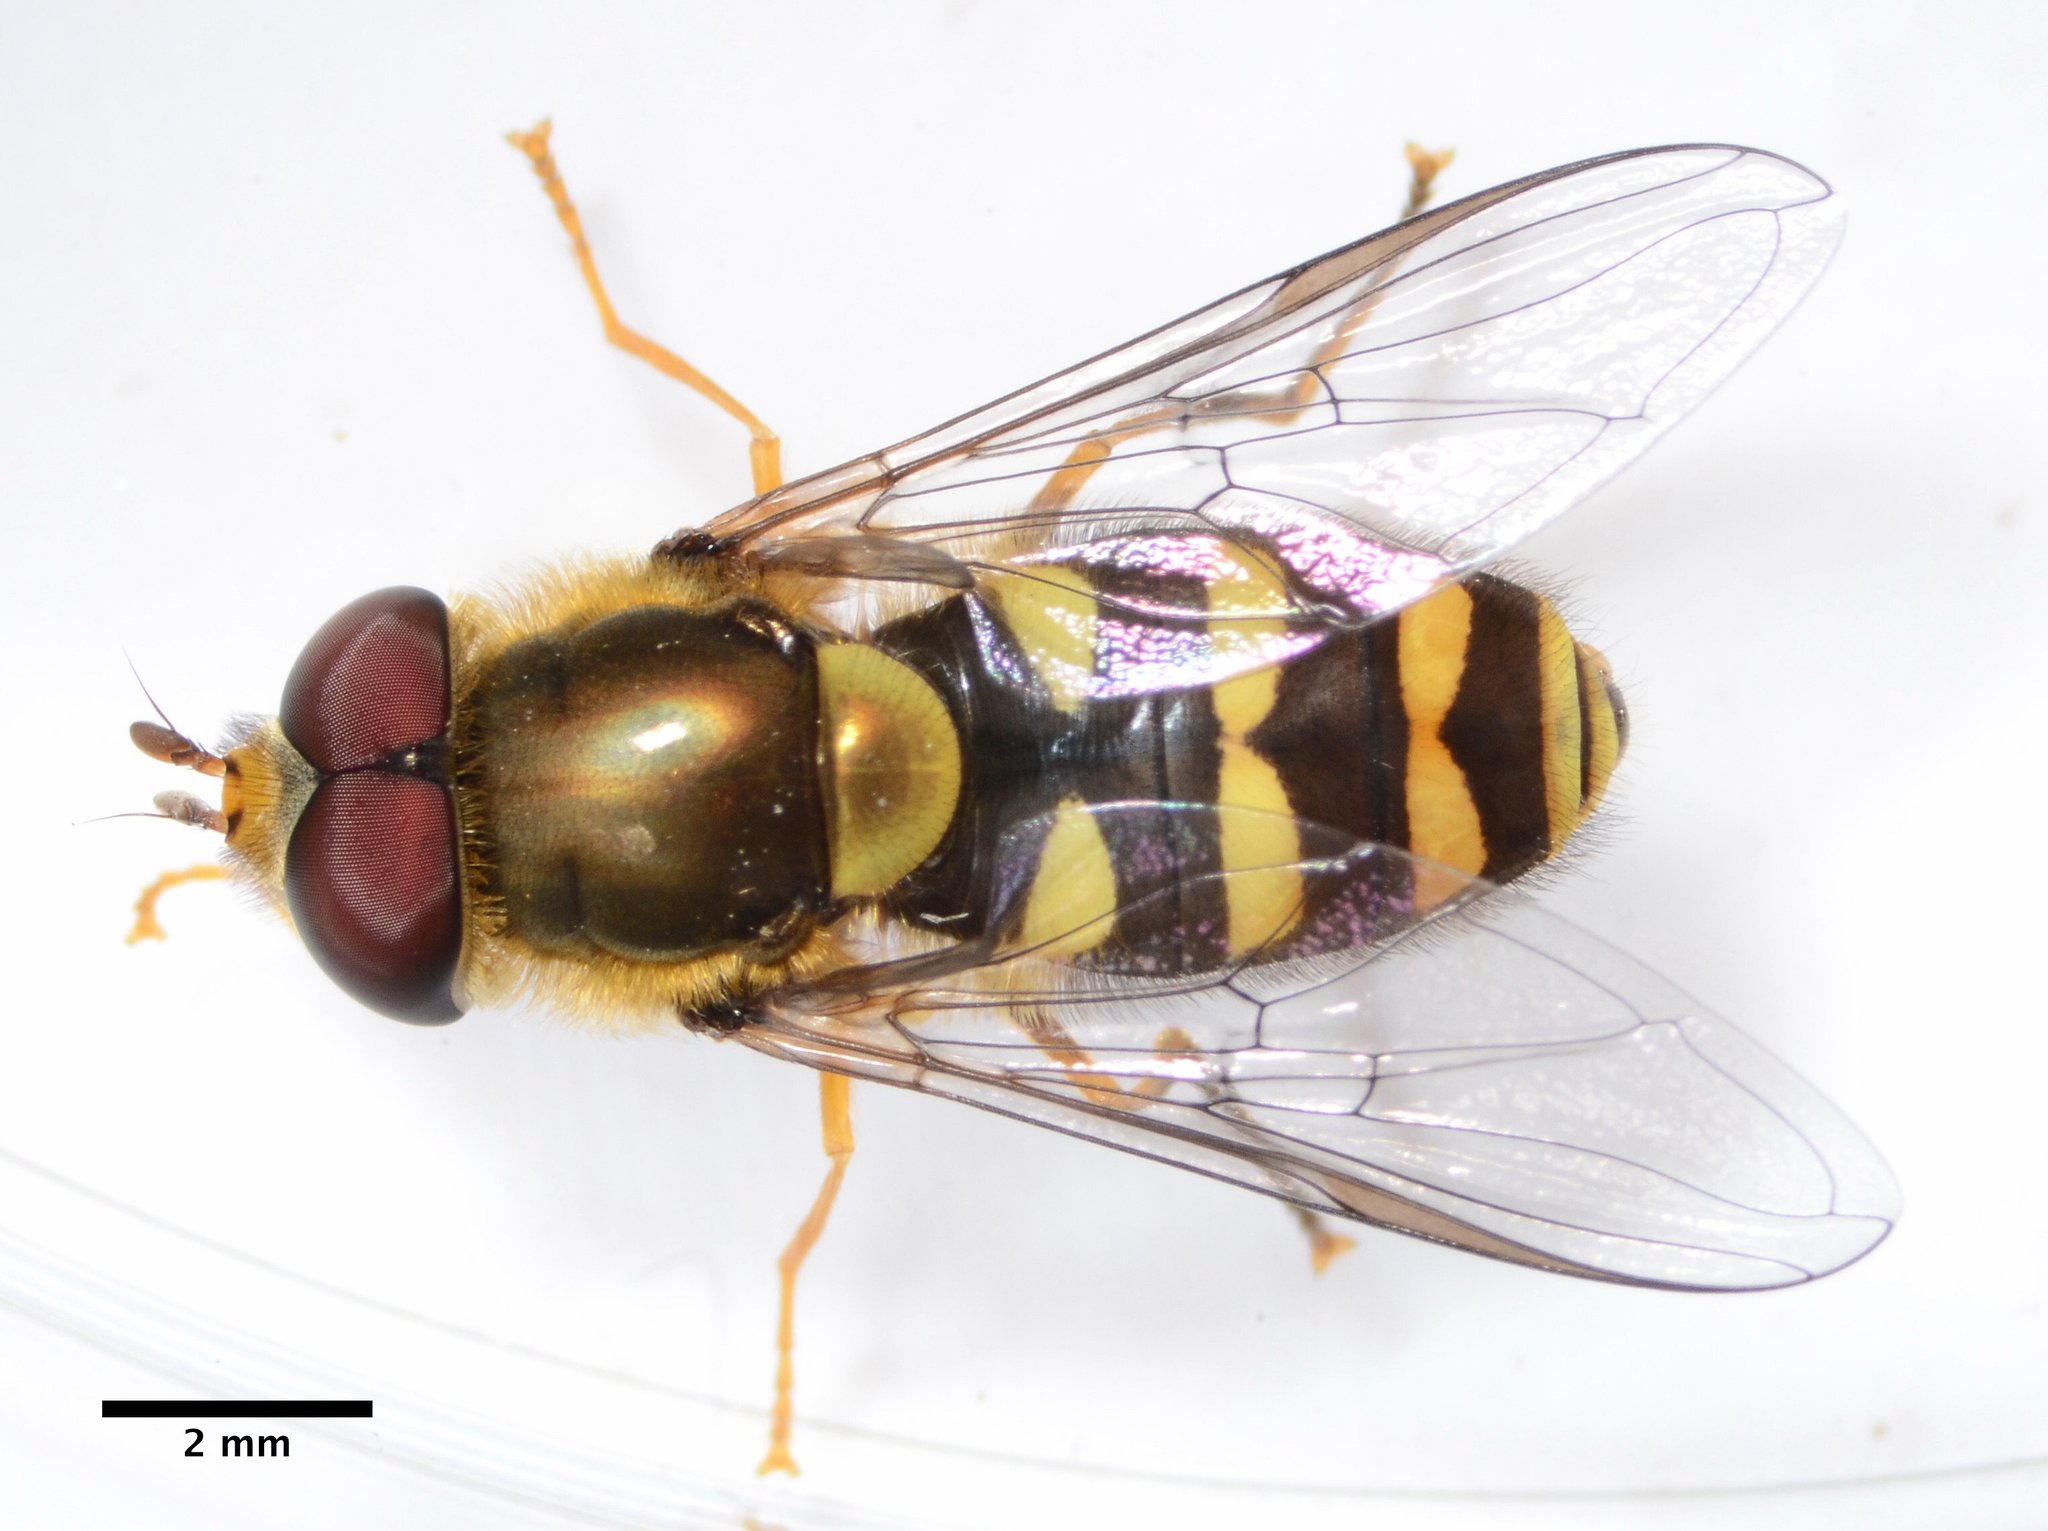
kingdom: Animalia
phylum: Arthropoda
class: Insecta
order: Diptera
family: Syrphidae
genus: Syrphus
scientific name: Syrphus opinator
